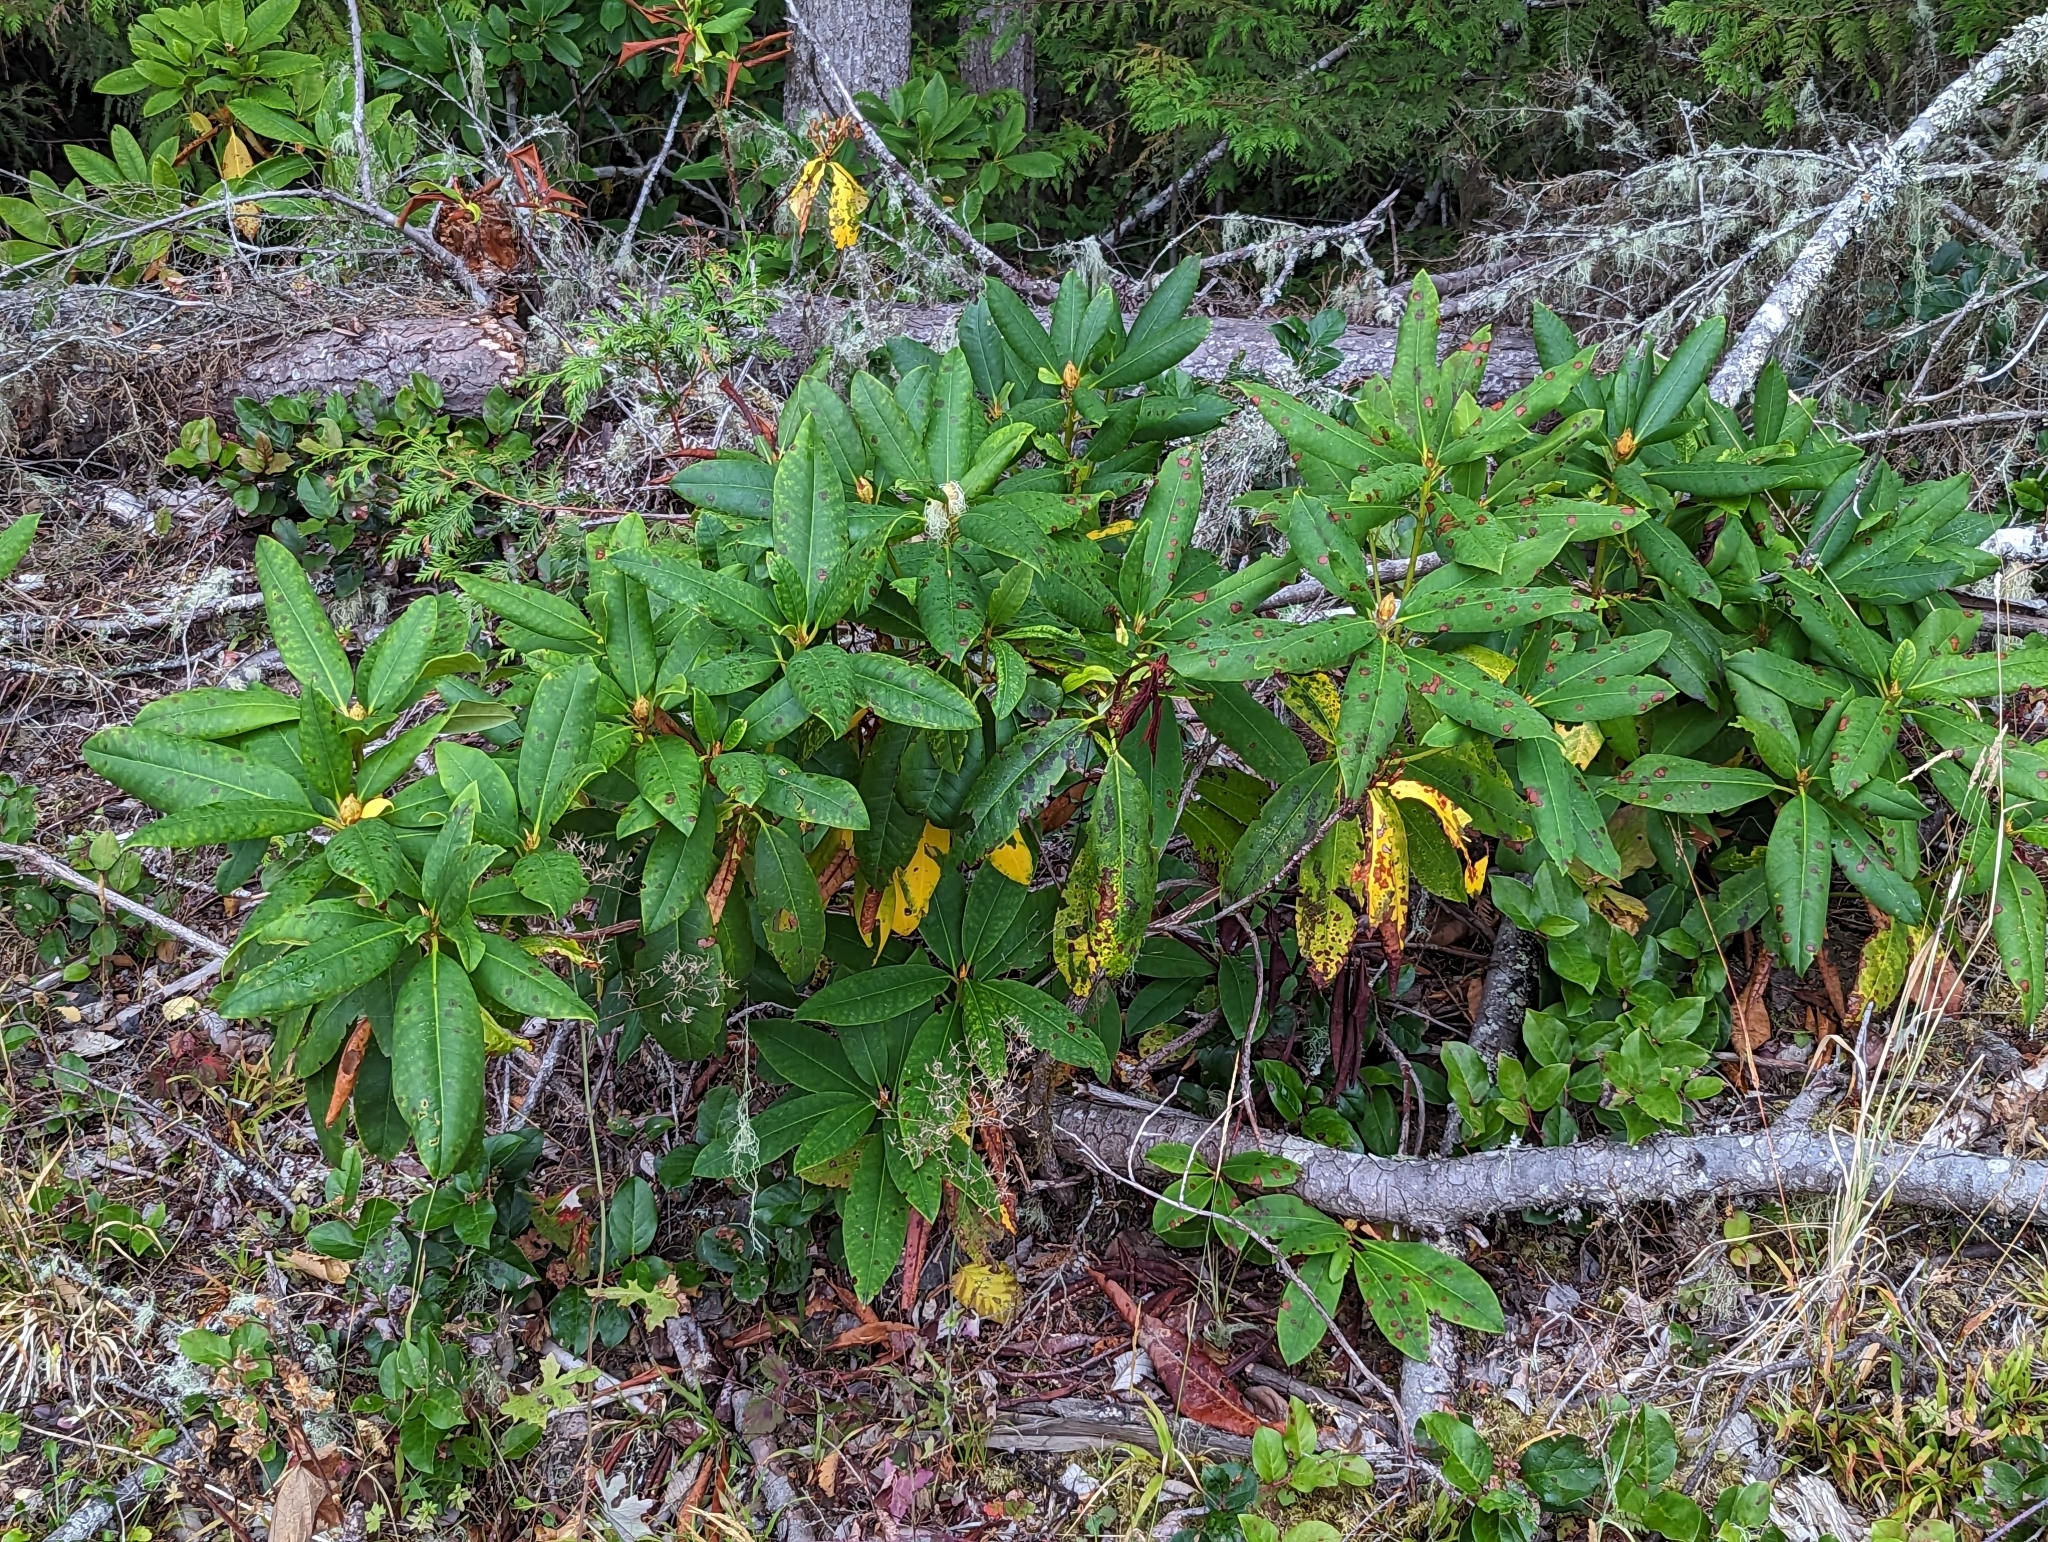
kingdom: Plantae
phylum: Tracheophyta
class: Magnoliopsida
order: Ericales
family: Ericaceae
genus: Rhododendron
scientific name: Rhododendron macrophyllum
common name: California rose bay
